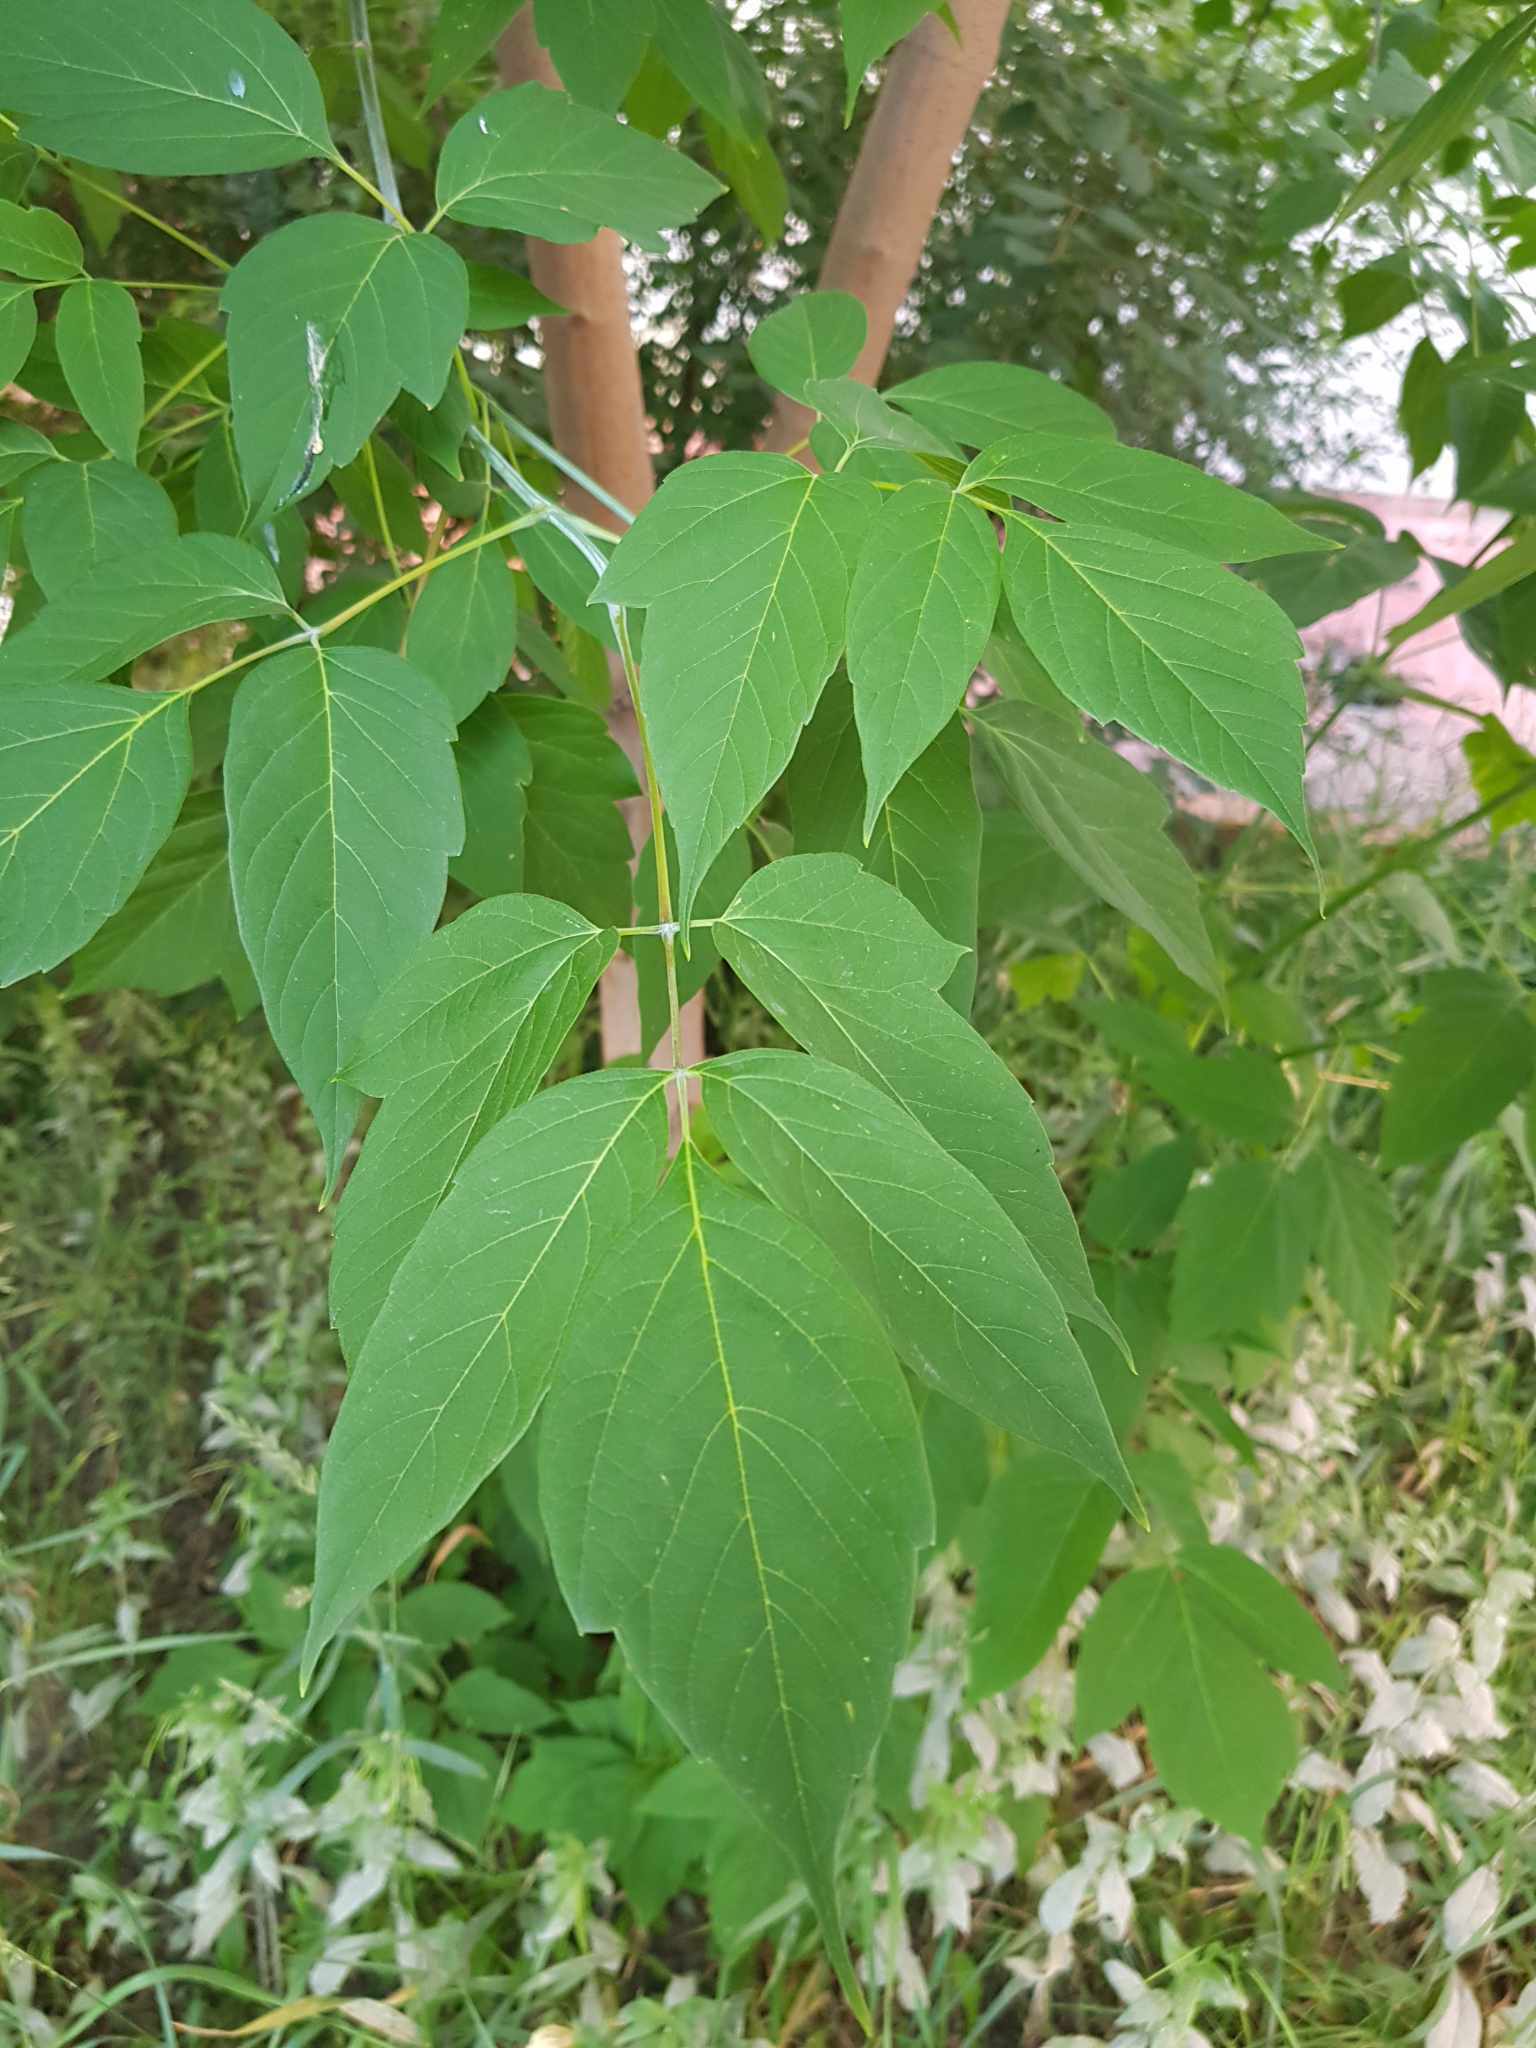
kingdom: Plantae
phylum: Tracheophyta
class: Magnoliopsida
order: Sapindales
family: Sapindaceae
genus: Acer
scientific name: Acer negundo
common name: Ashleaf maple
